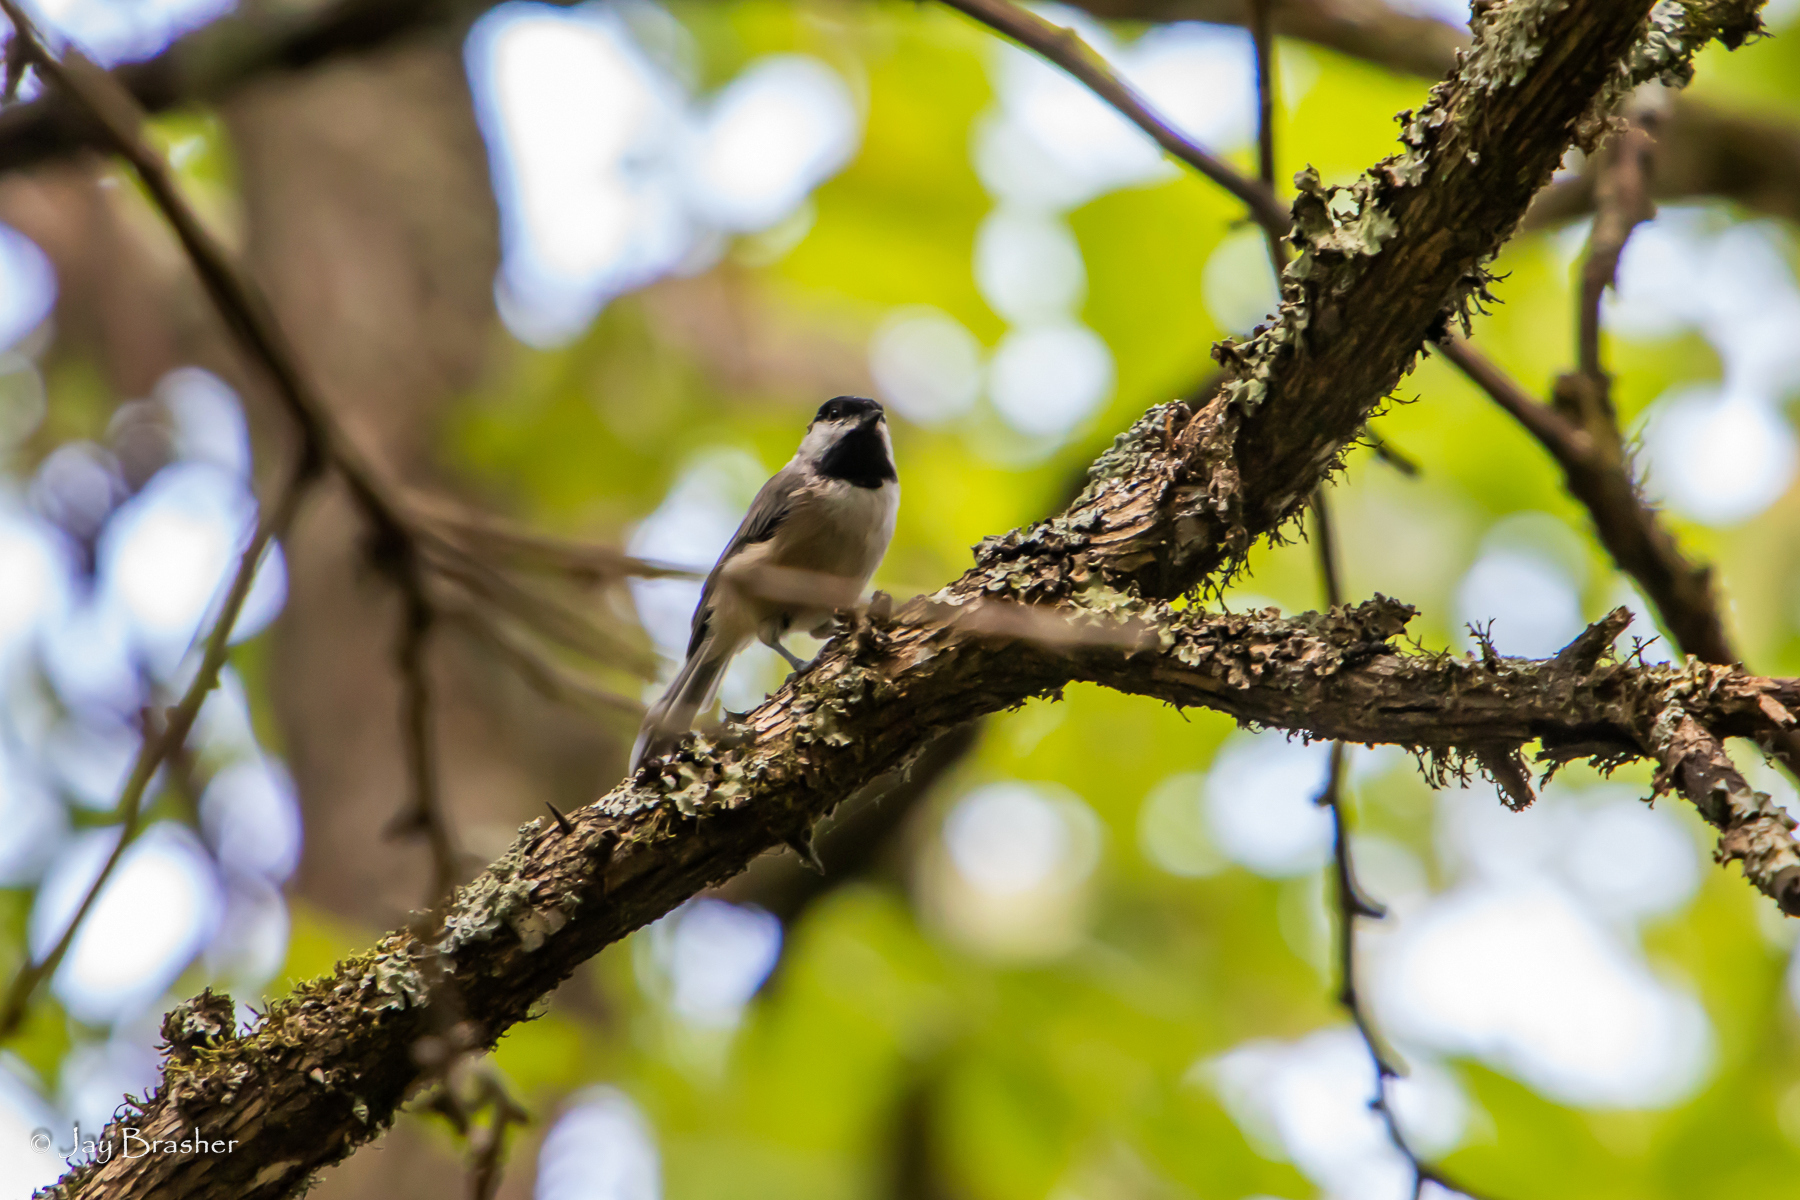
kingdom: Animalia
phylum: Chordata
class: Aves
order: Passeriformes
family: Paridae
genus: Poecile
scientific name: Poecile carolinensis
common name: Carolina chickadee
